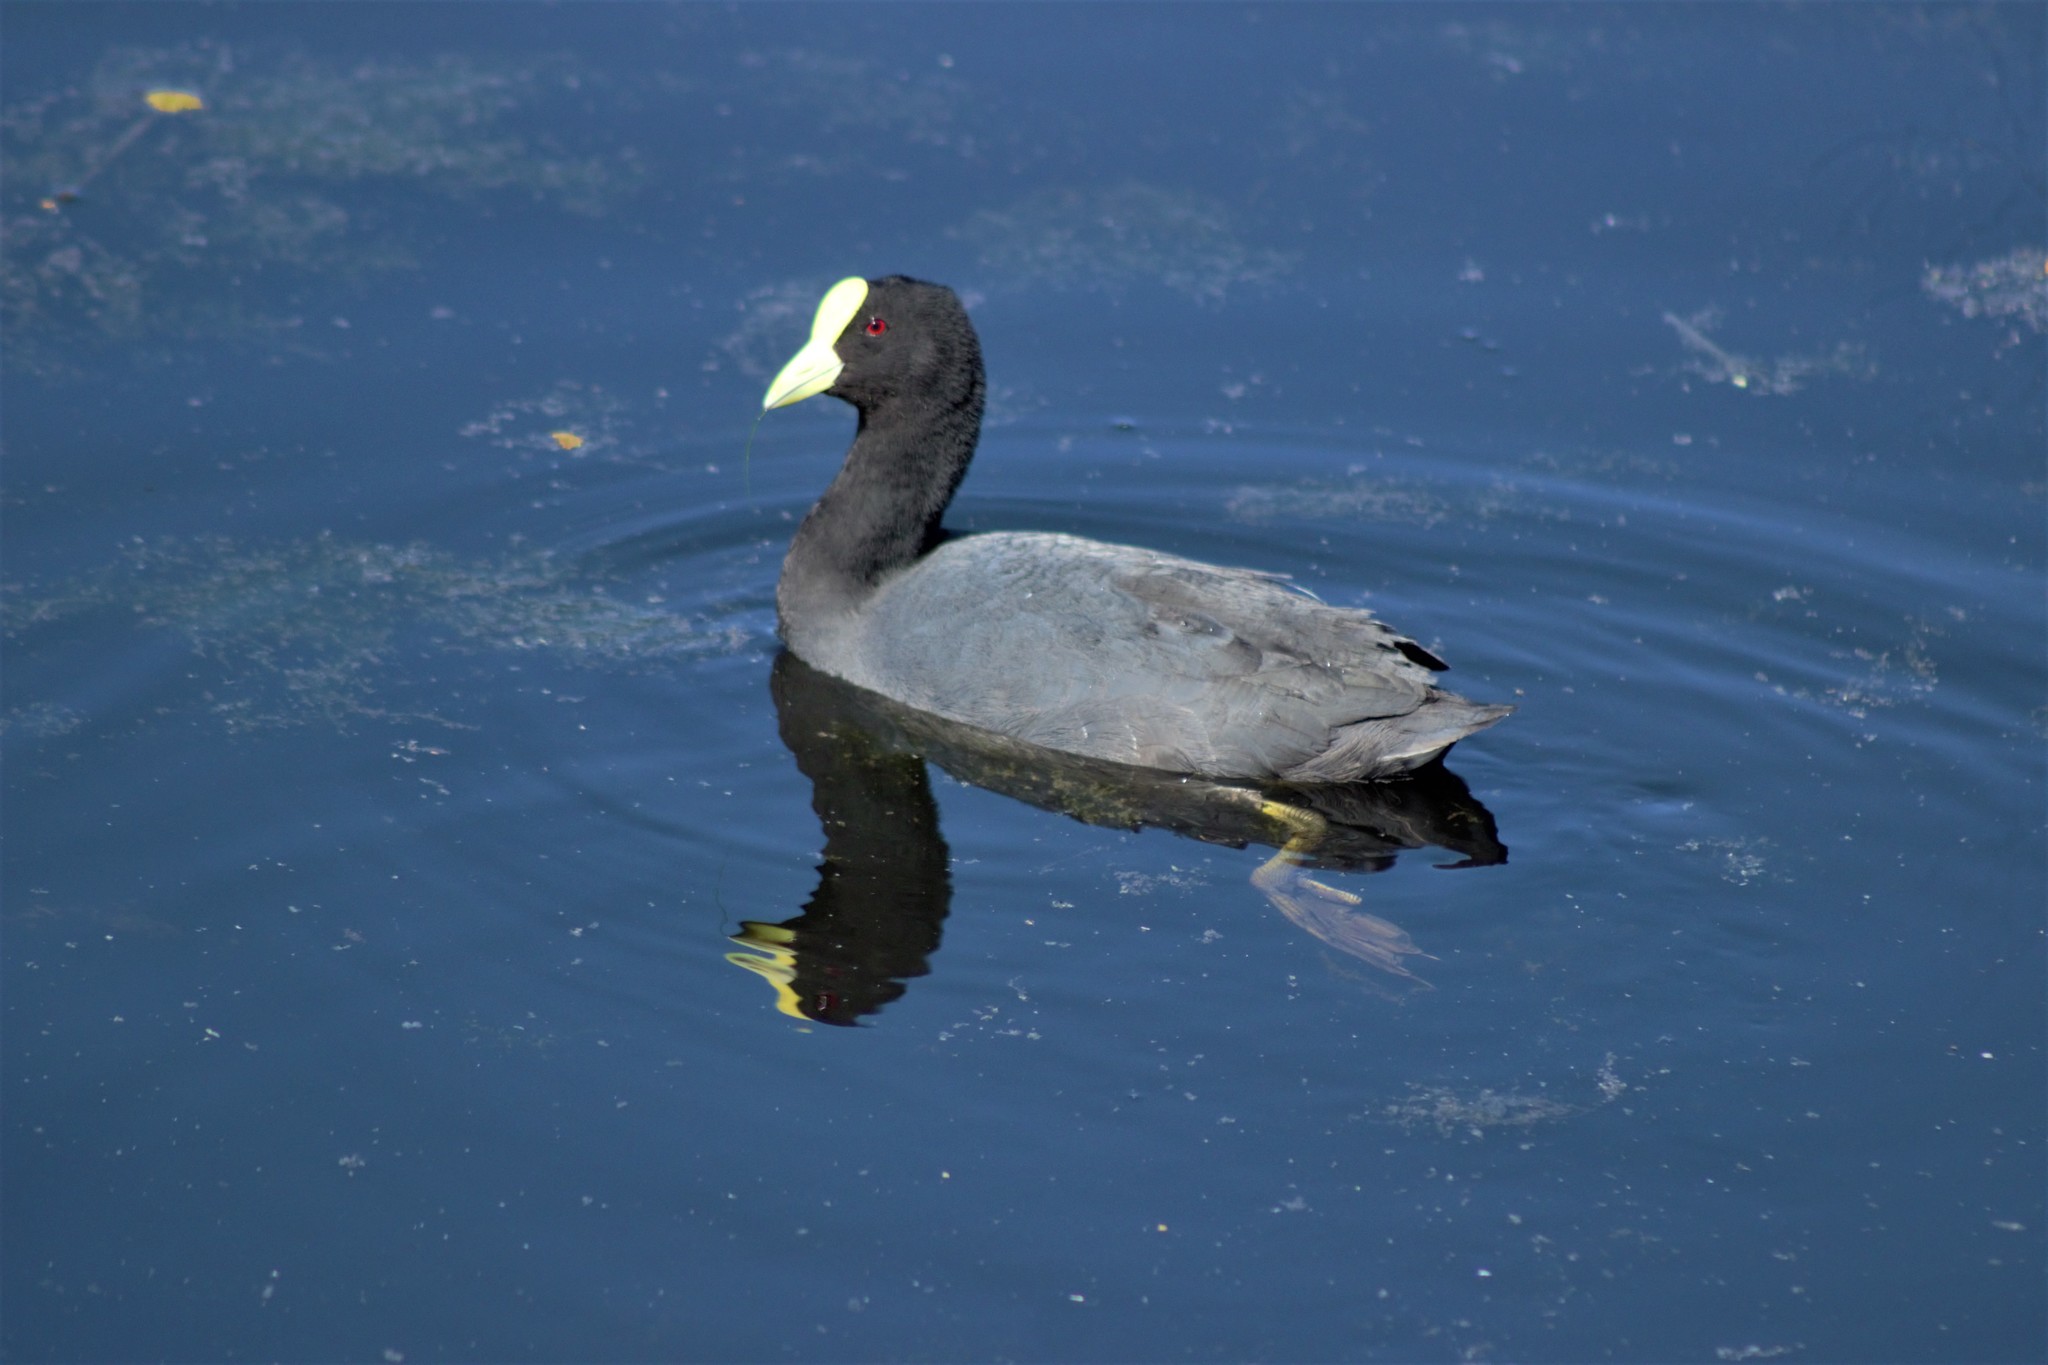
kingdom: Animalia
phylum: Chordata
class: Aves
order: Gruiformes
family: Rallidae
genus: Fulica
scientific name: Fulica leucoptera
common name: White-winged coot
